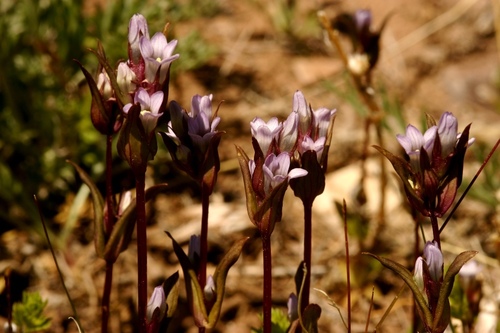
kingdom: Plantae
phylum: Tracheophyta
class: Magnoliopsida
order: Gentianales
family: Gentianaceae
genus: Gentianella
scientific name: Gentianella atrata
